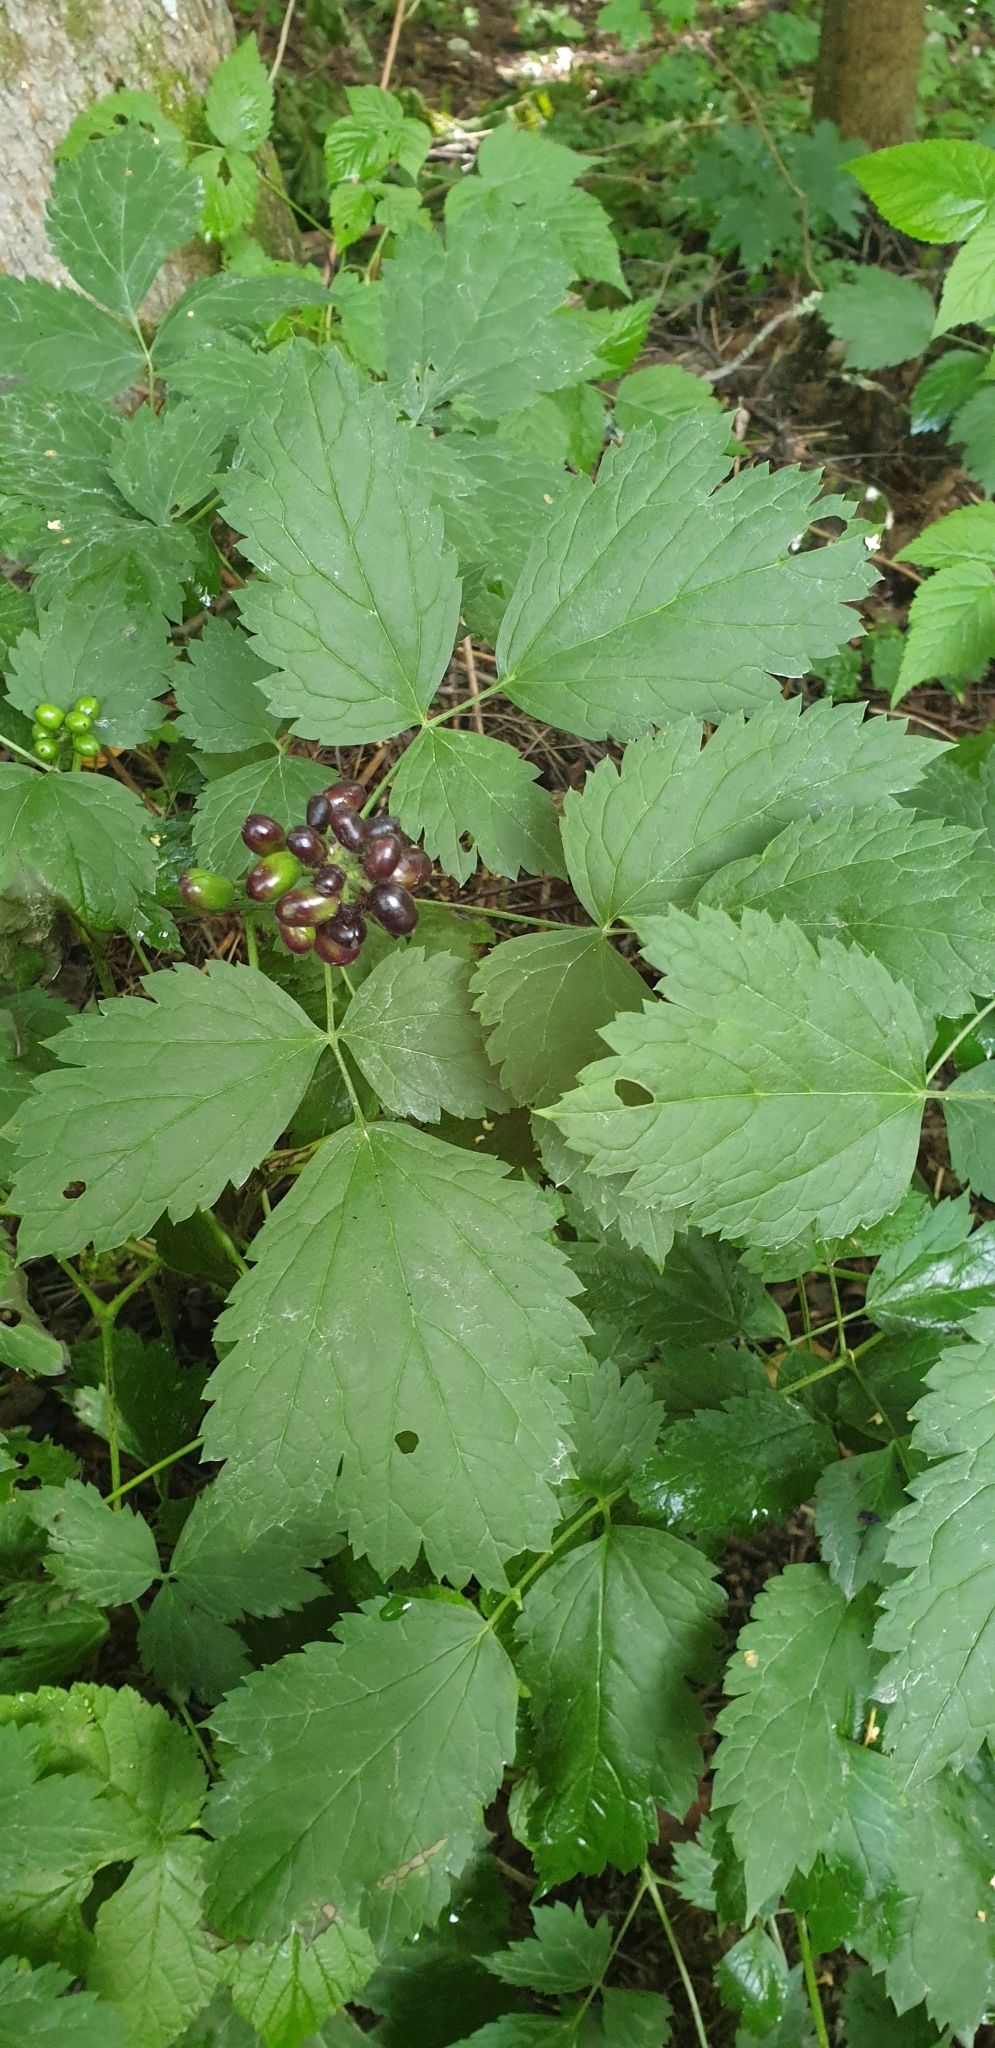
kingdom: Plantae
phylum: Tracheophyta
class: Magnoliopsida
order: Ranunculales
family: Ranunculaceae
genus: Actaea
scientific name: Actaea spicata
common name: Baneberry
